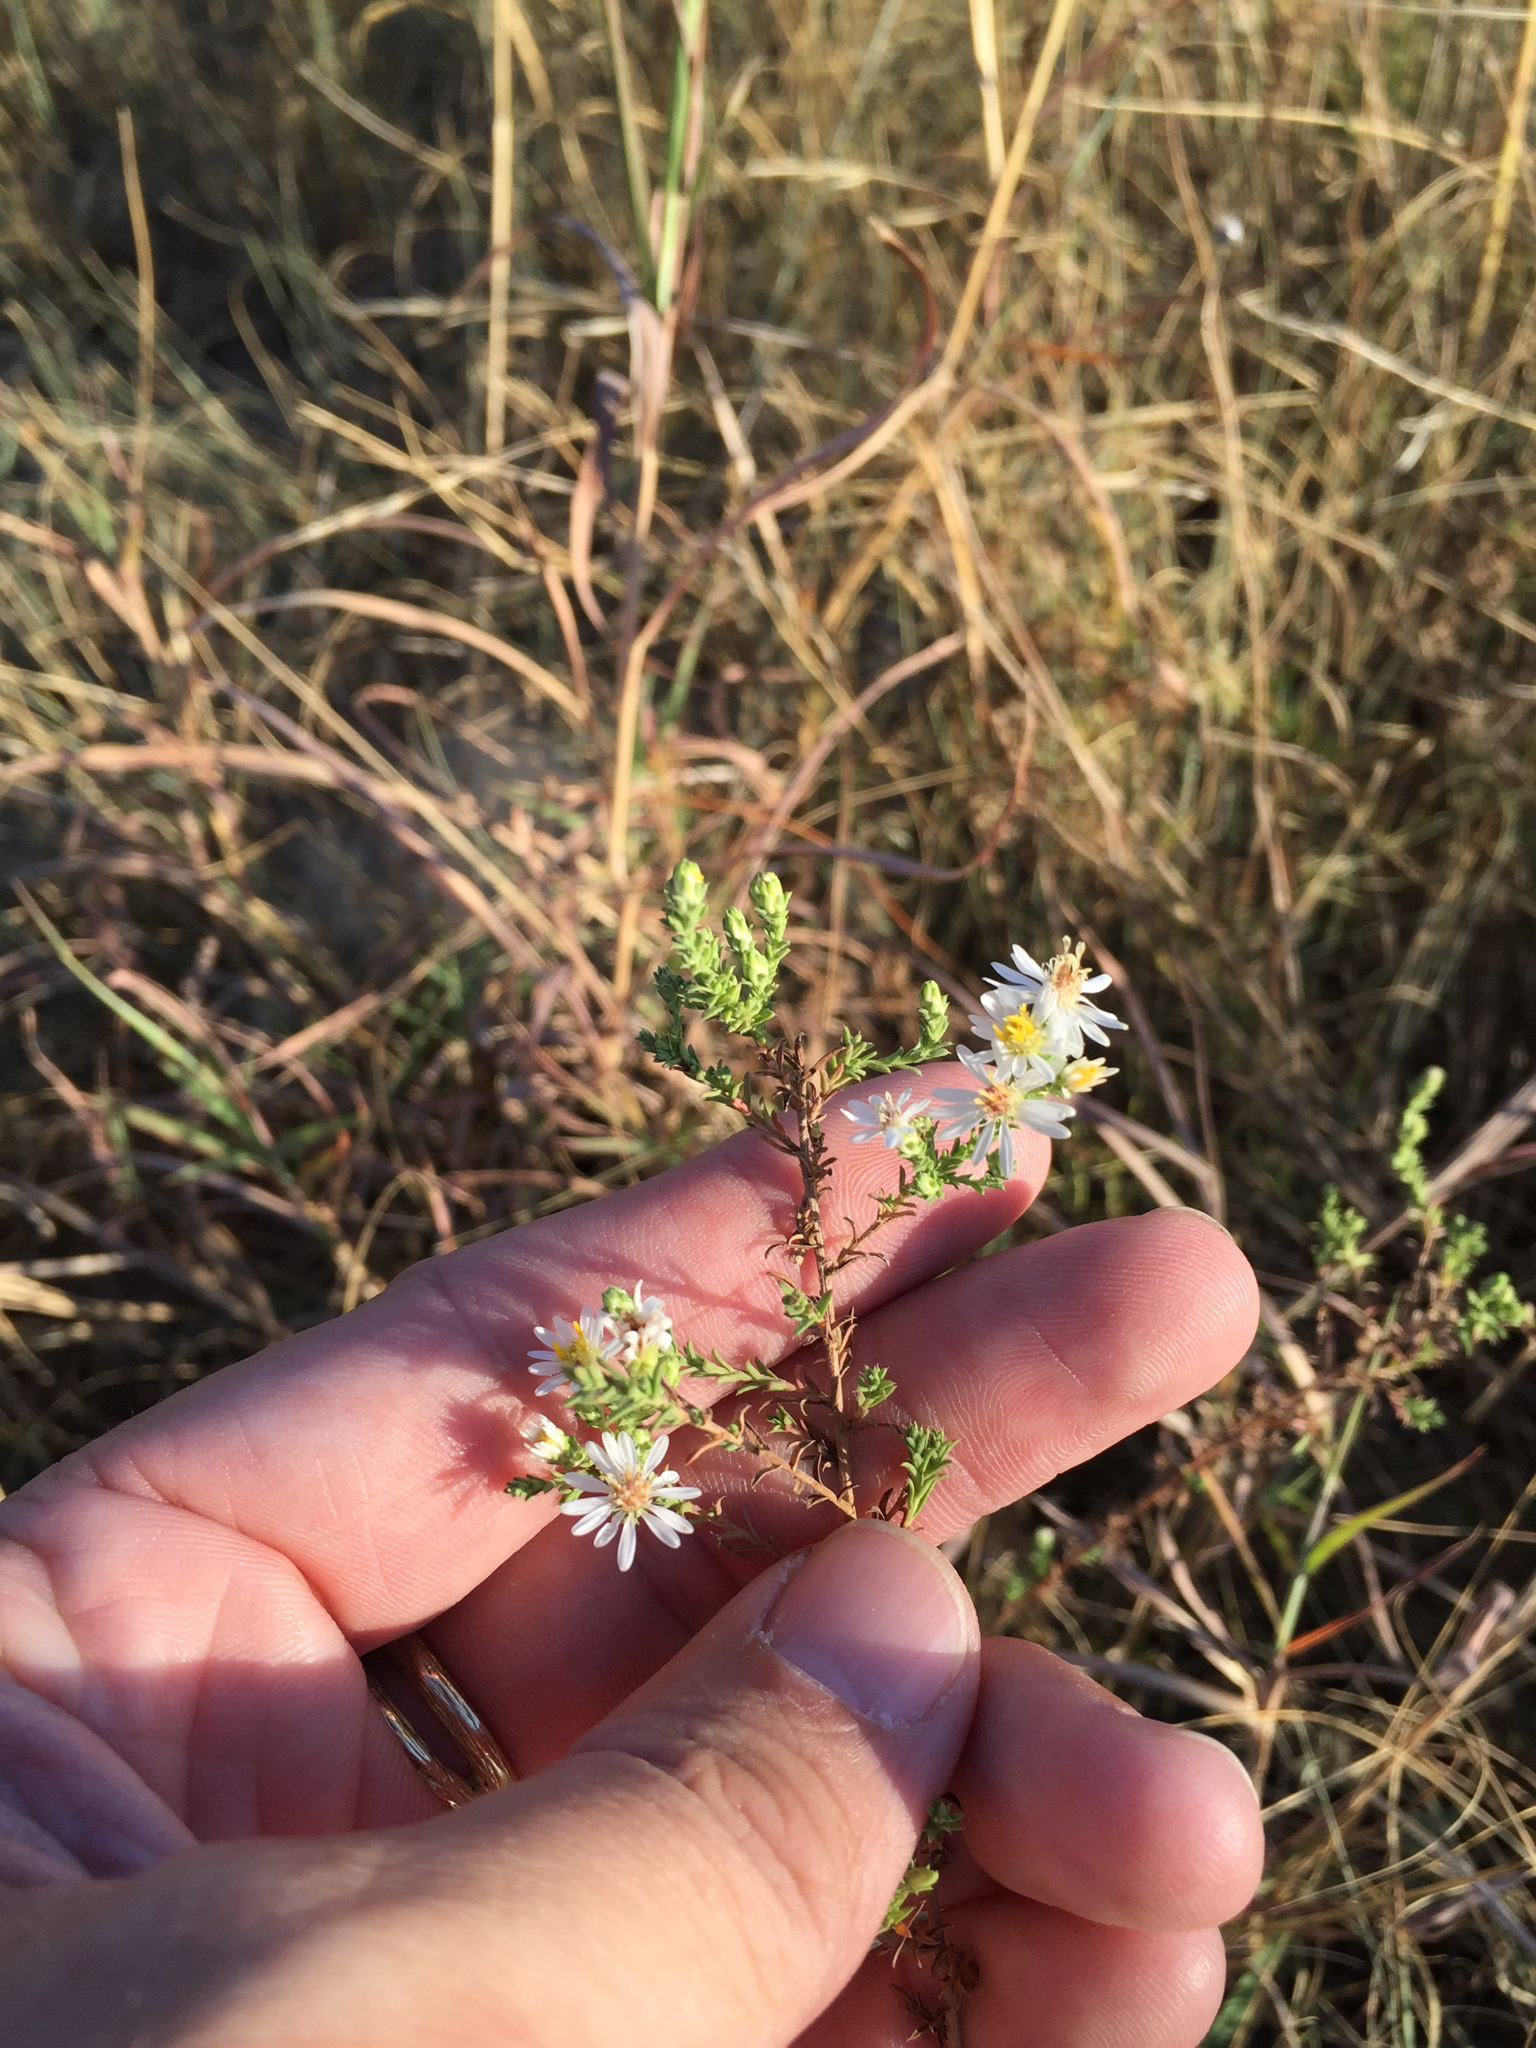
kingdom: Plantae
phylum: Tracheophyta
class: Magnoliopsida
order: Asterales
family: Asteraceae
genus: Symphyotrichum
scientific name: Symphyotrichum ericoides
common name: Heath aster
